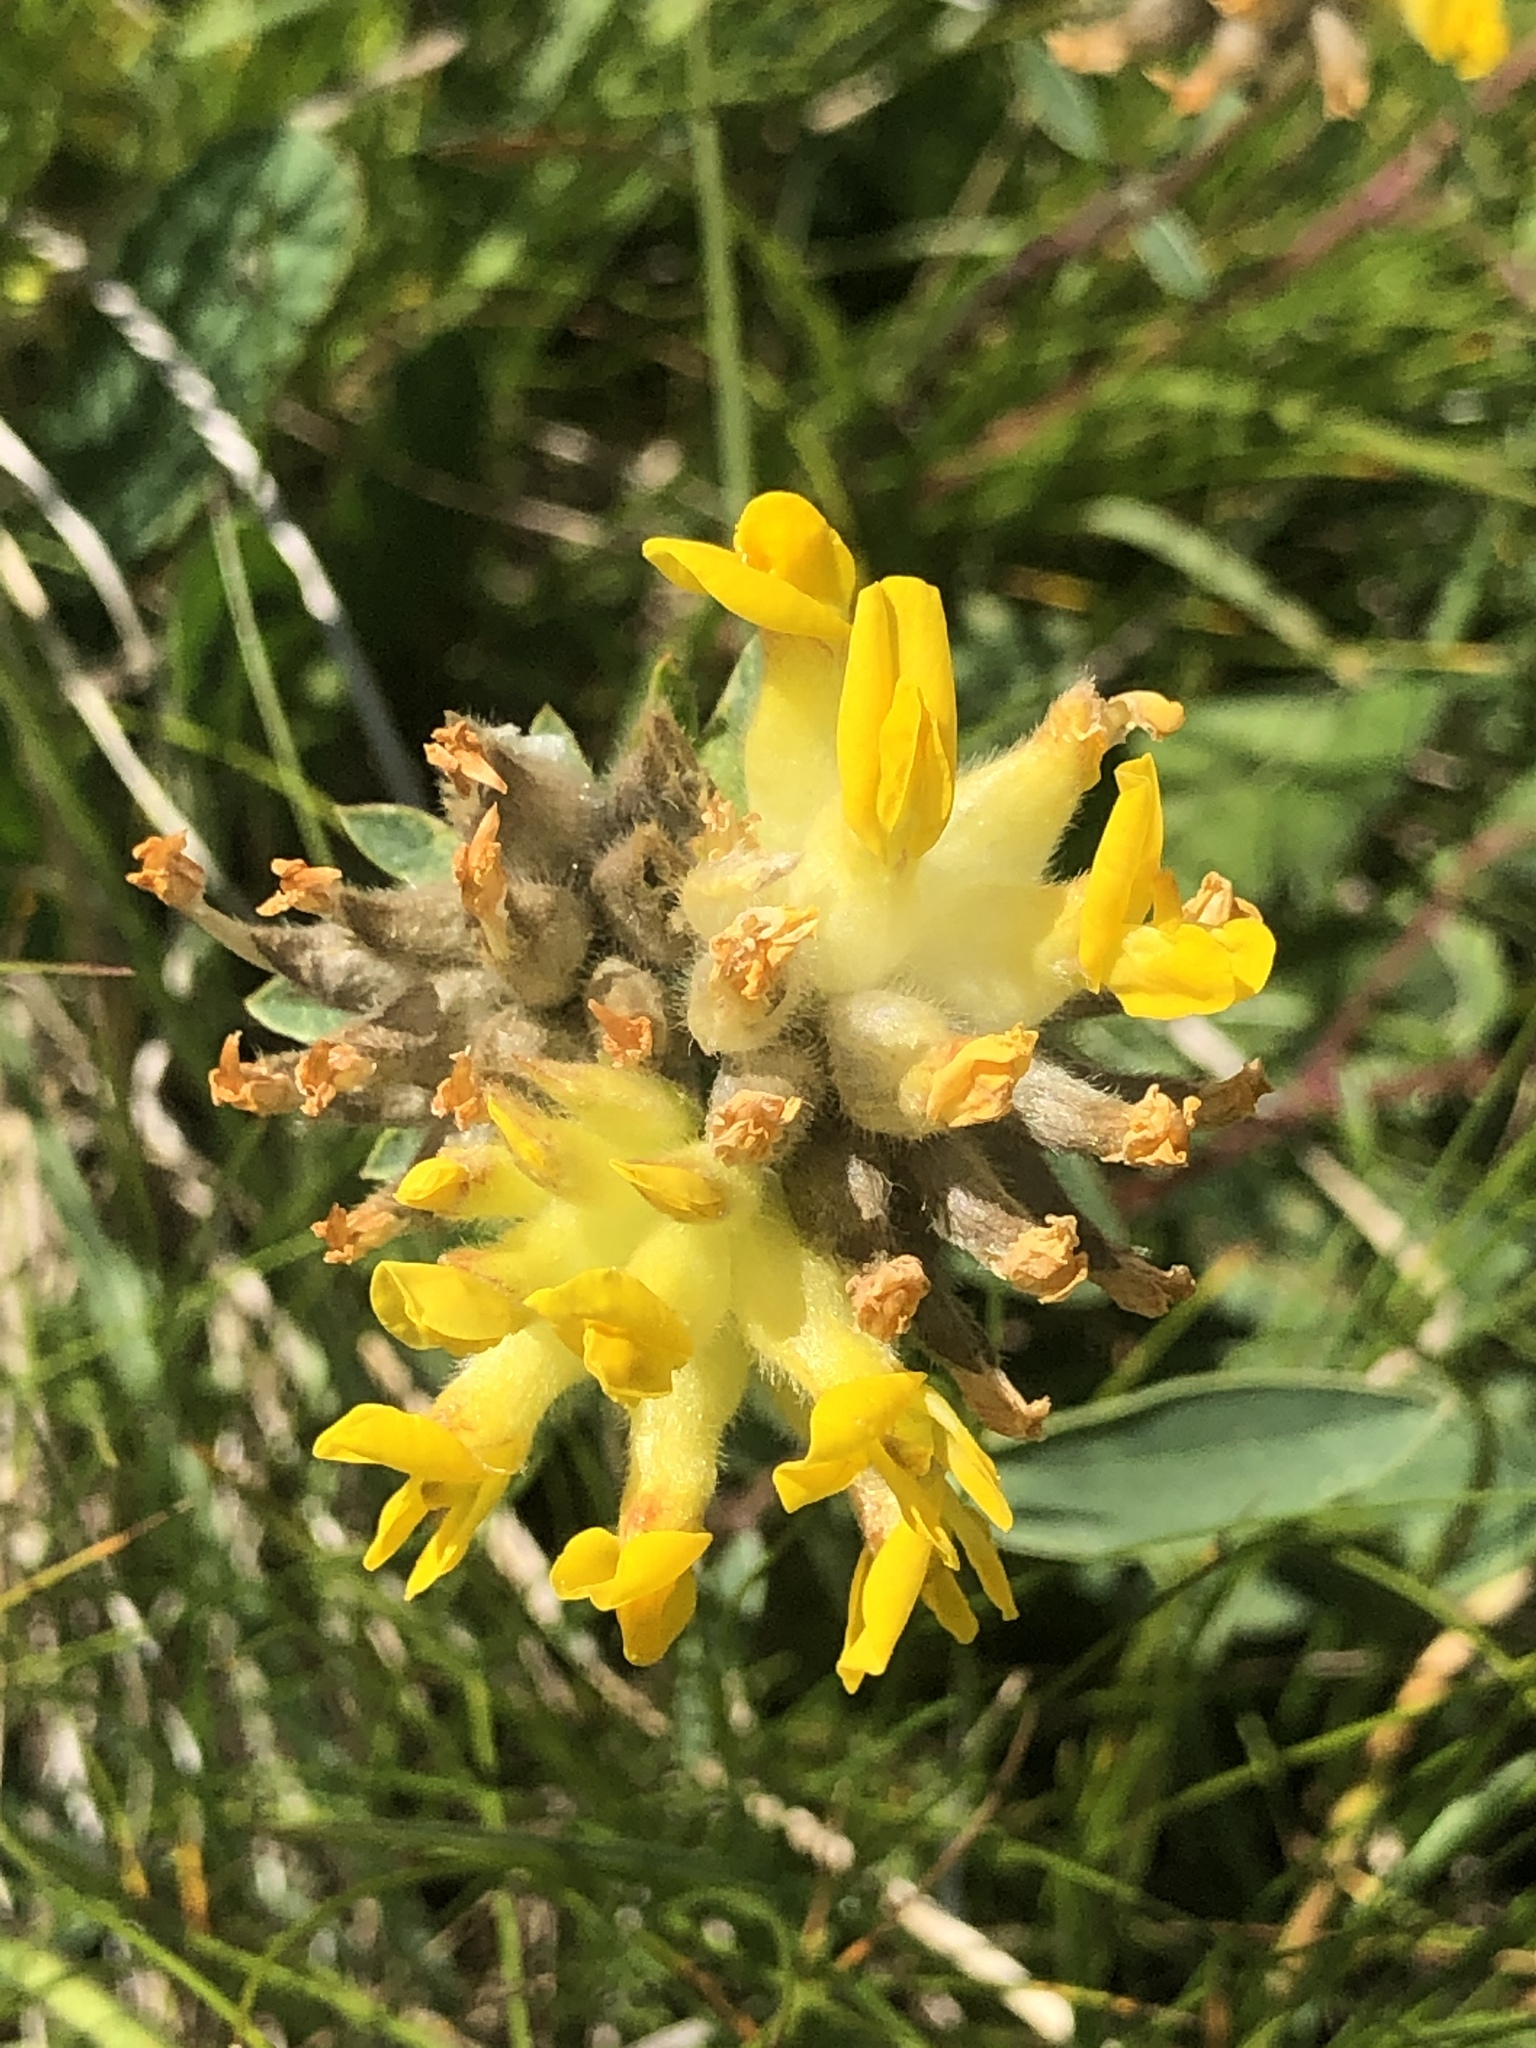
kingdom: Plantae
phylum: Tracheophyta
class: Magnoliopsida
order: Fabales
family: Fabaceae
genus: Anthyllis
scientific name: Anthyllis vulneraria
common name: Kidney vetch
